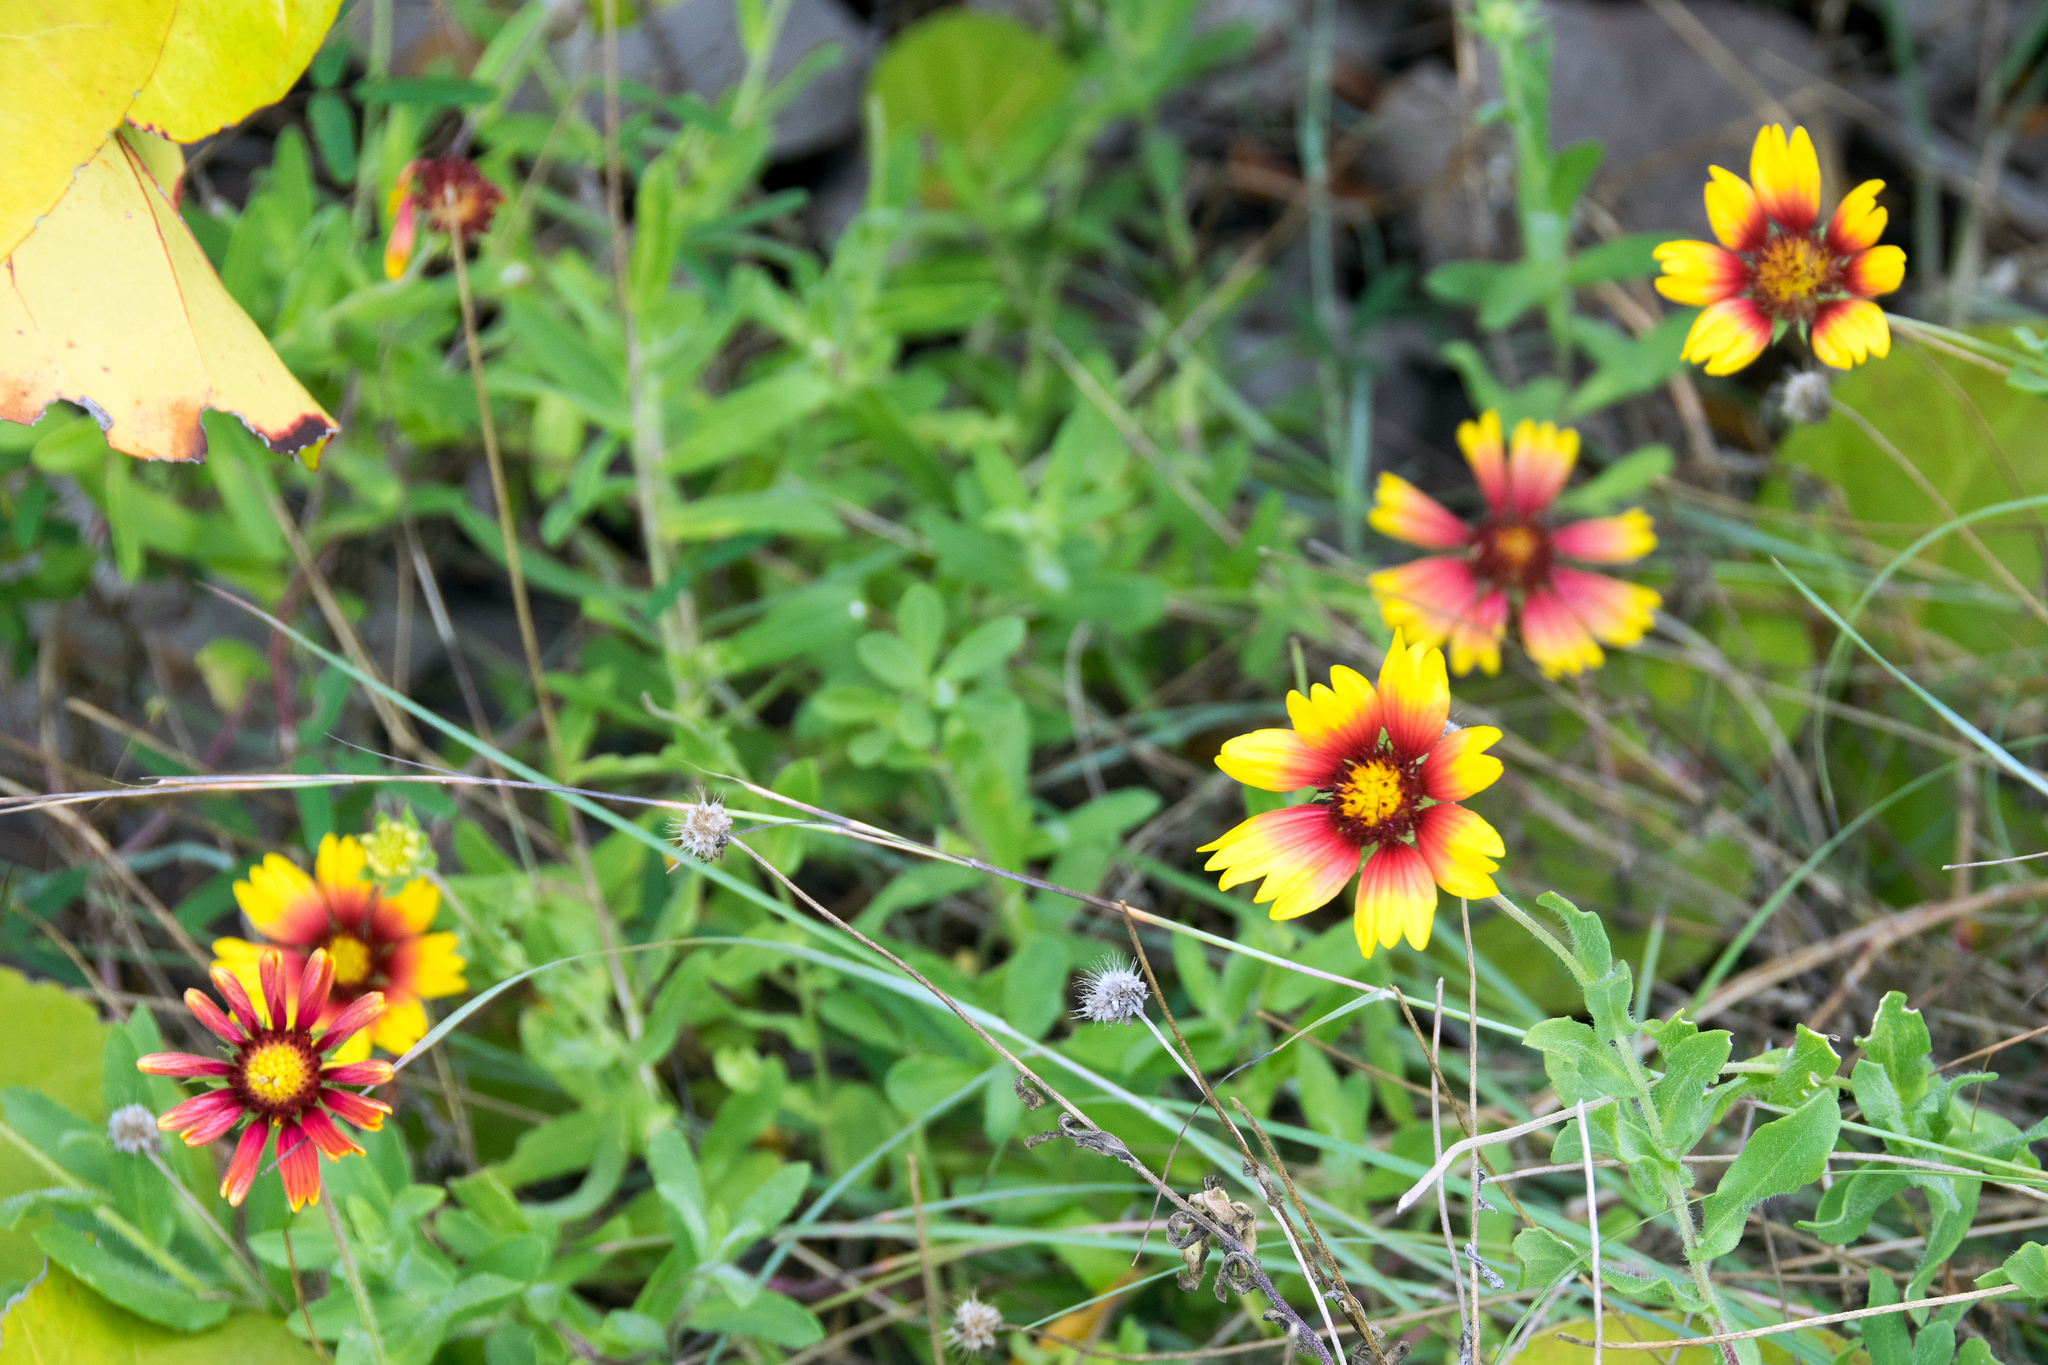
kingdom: Plantae
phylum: Tracheophyta
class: Magnoliopsida
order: Asterales
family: Asteraceae
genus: Gaillardia
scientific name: Gaillardia pulchella
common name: Firewheel
